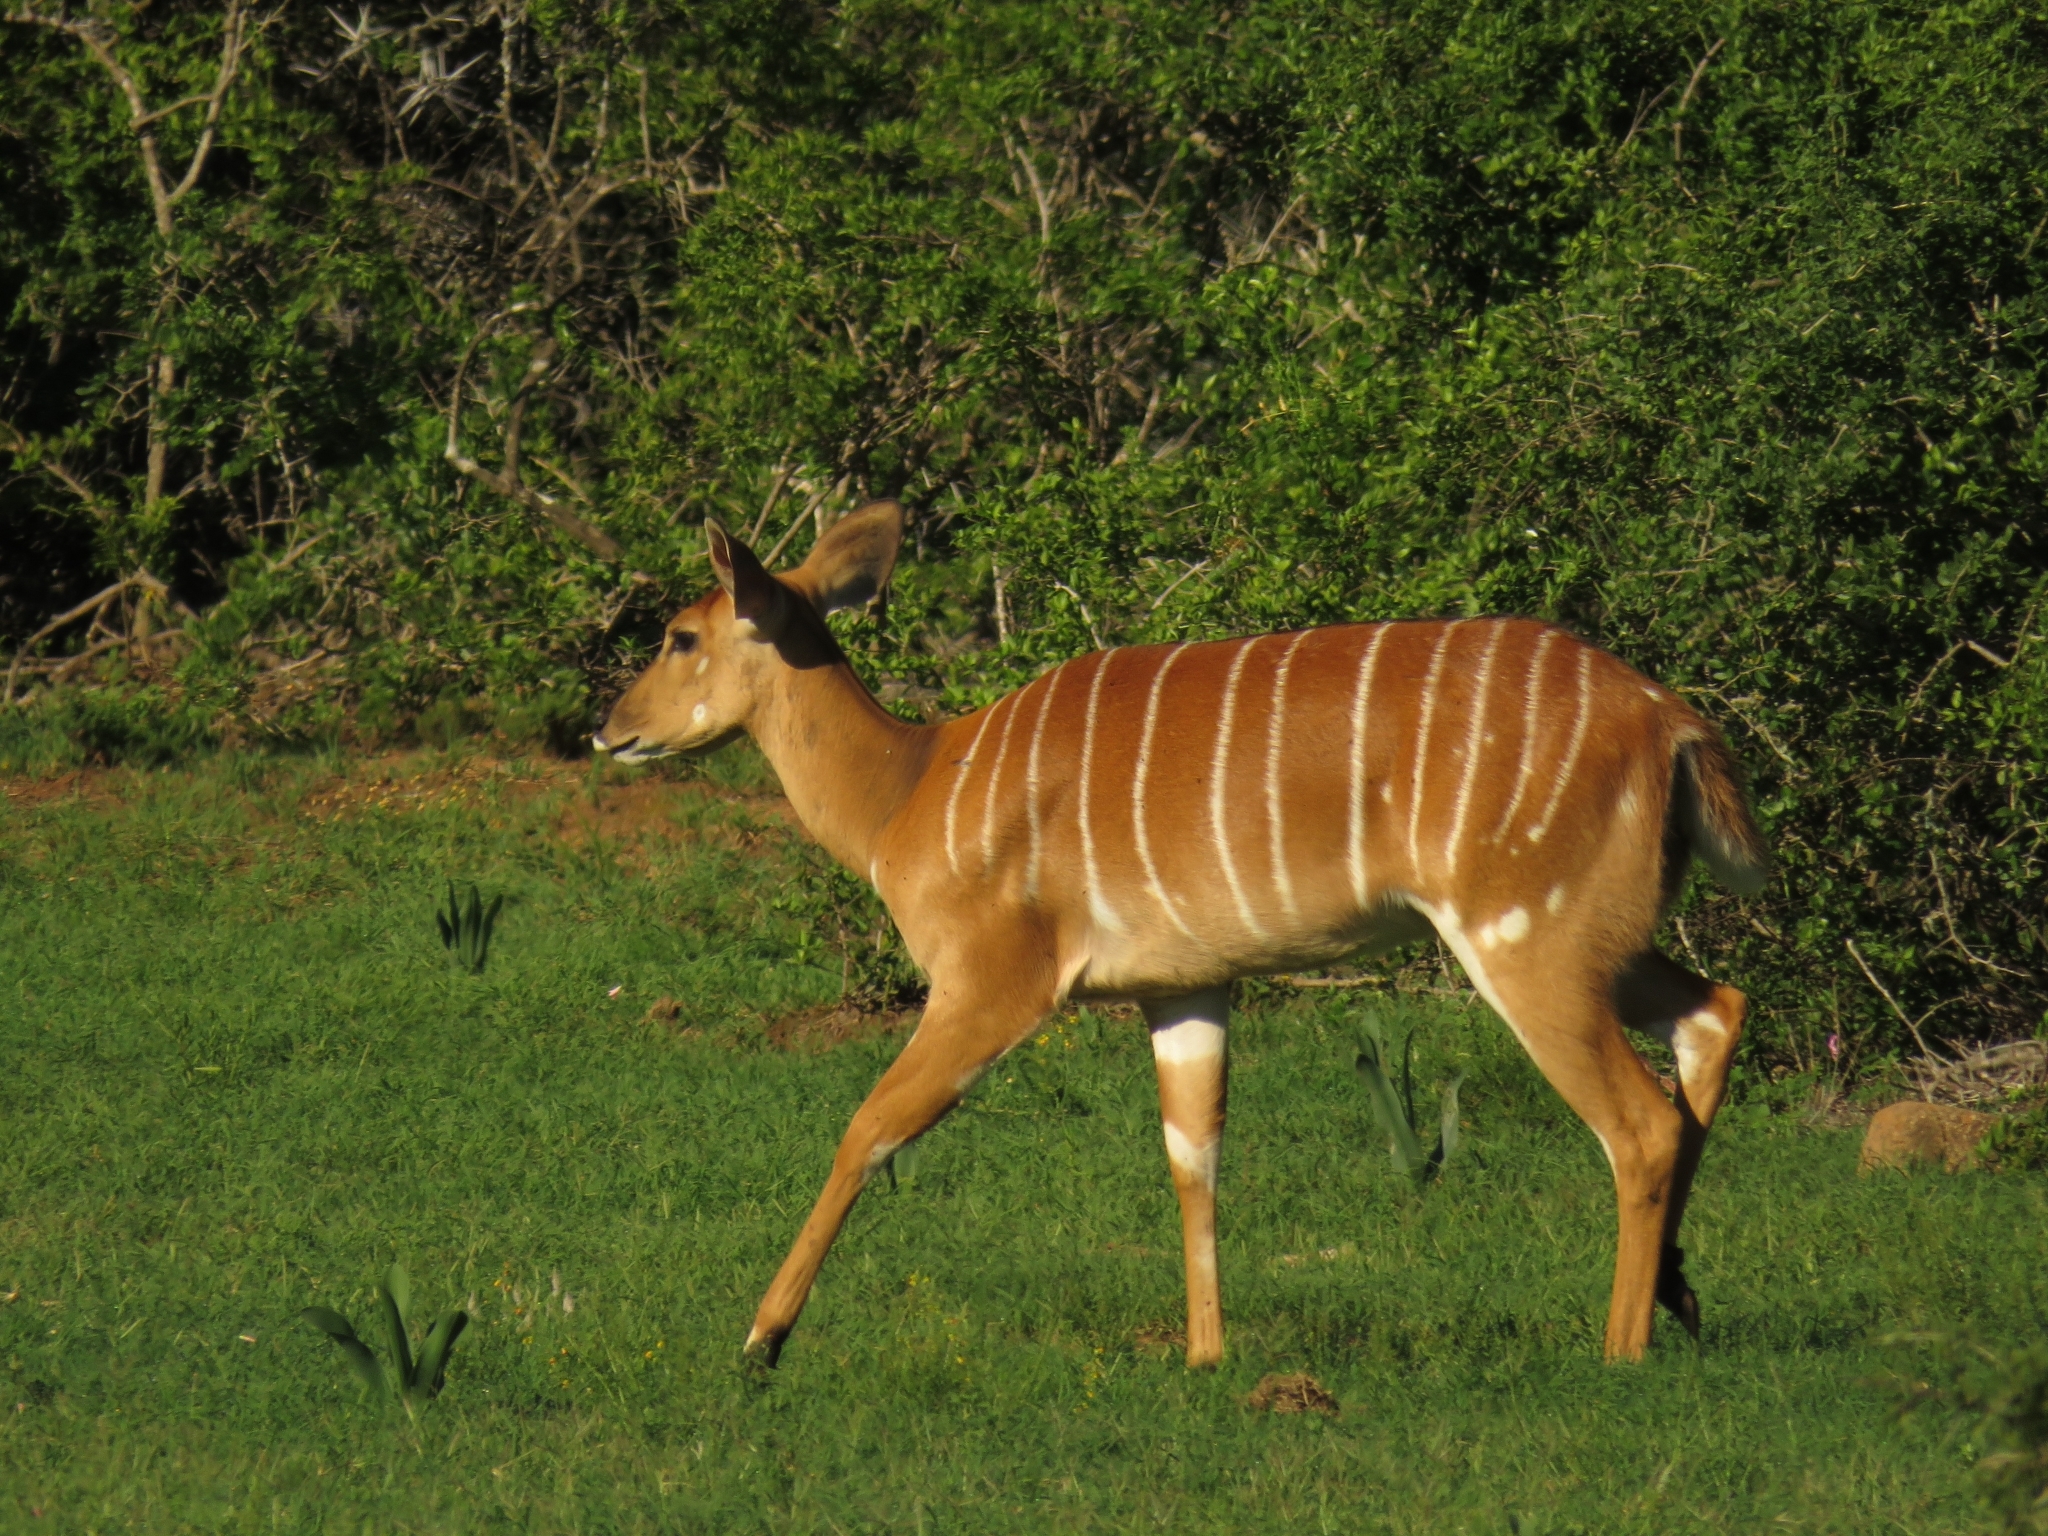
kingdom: Animalia
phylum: Chordata
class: Mammalia
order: Artiodactyla
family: Bovidae
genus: Tragelaphus
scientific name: Tragelaphus angasii
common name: Nyala
